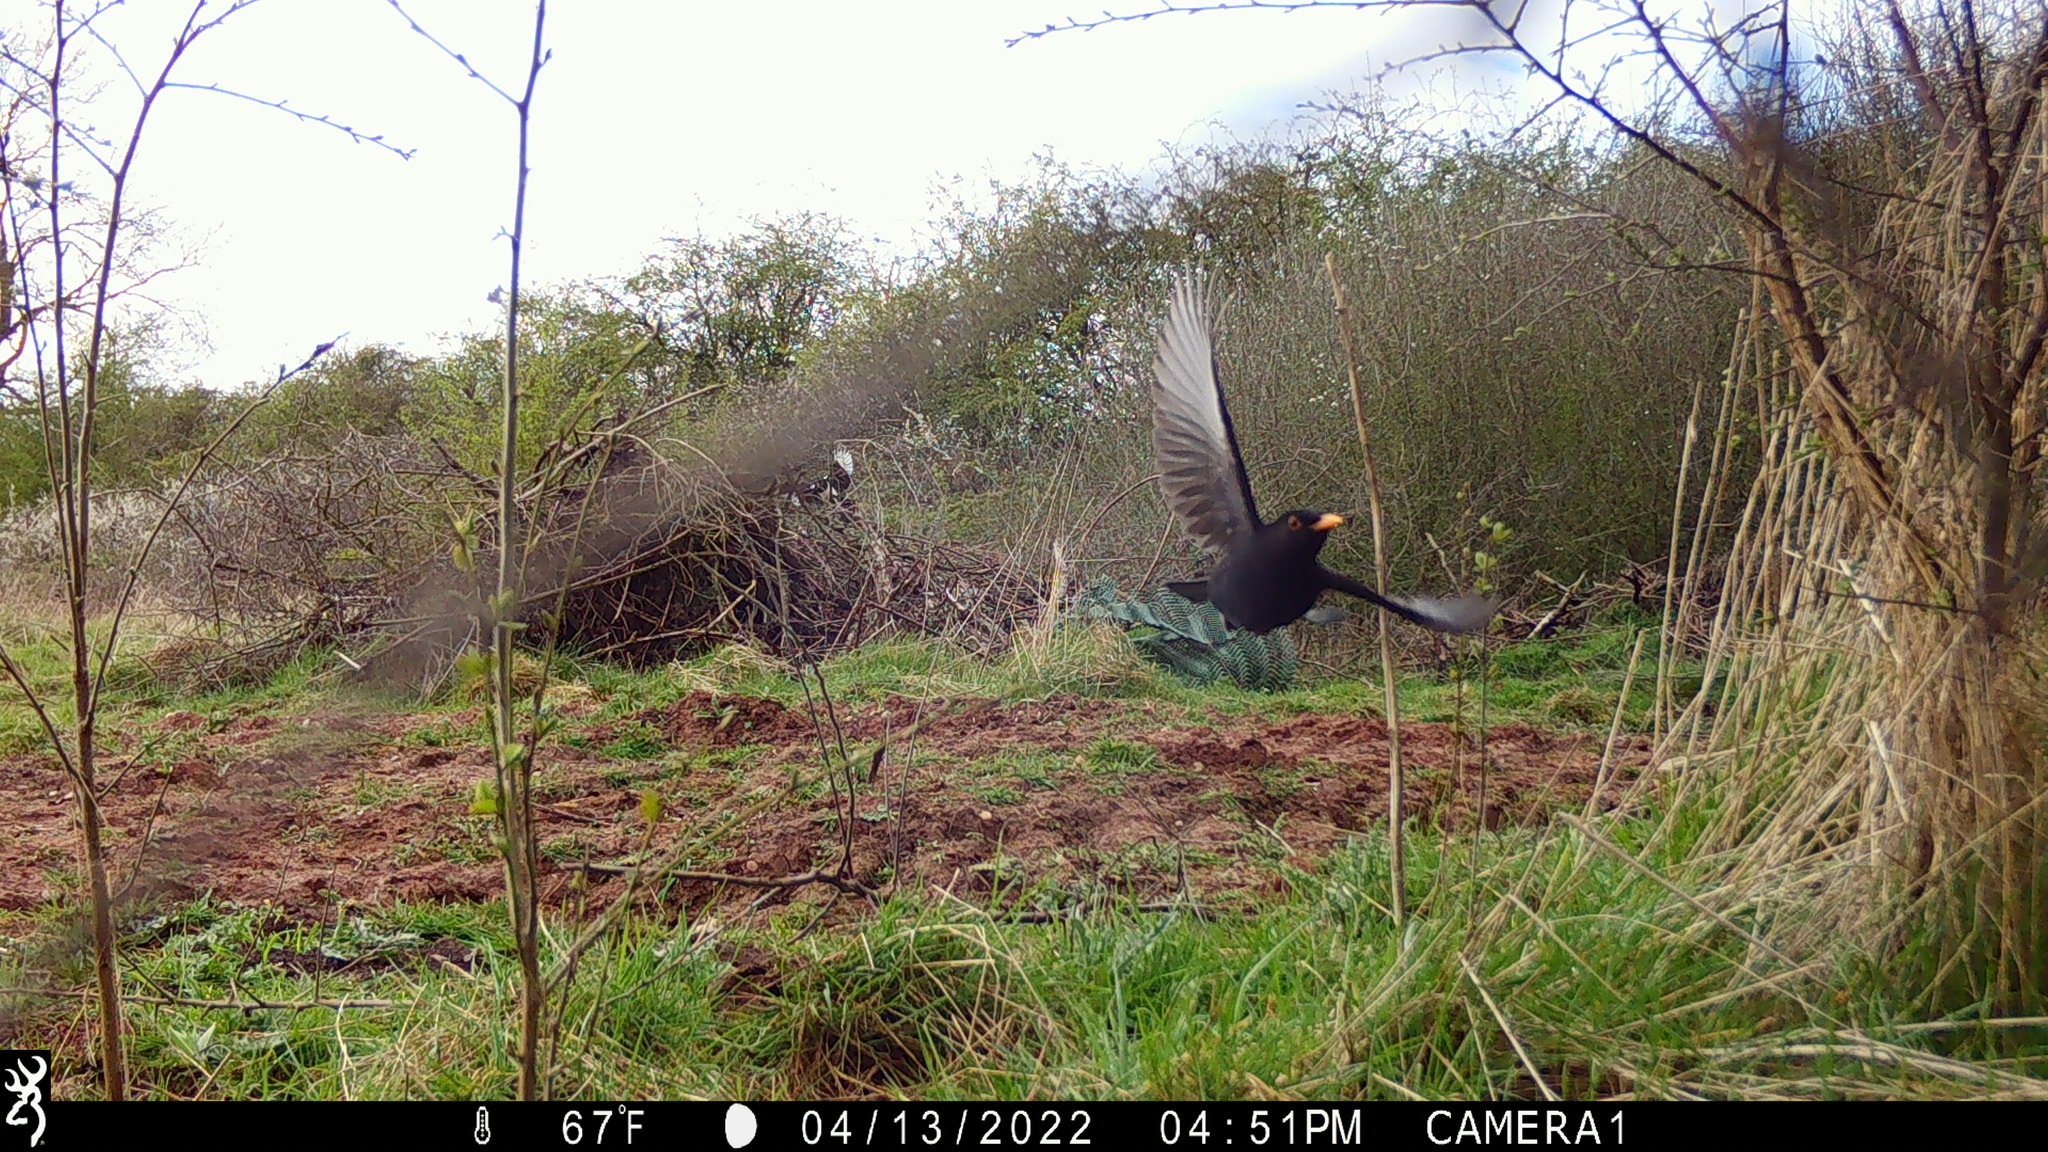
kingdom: Animalia
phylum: Chordata
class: Aves
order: Passeriformes
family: Turdidae
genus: Turdus
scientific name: Turdus merula
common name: Common blackbird
